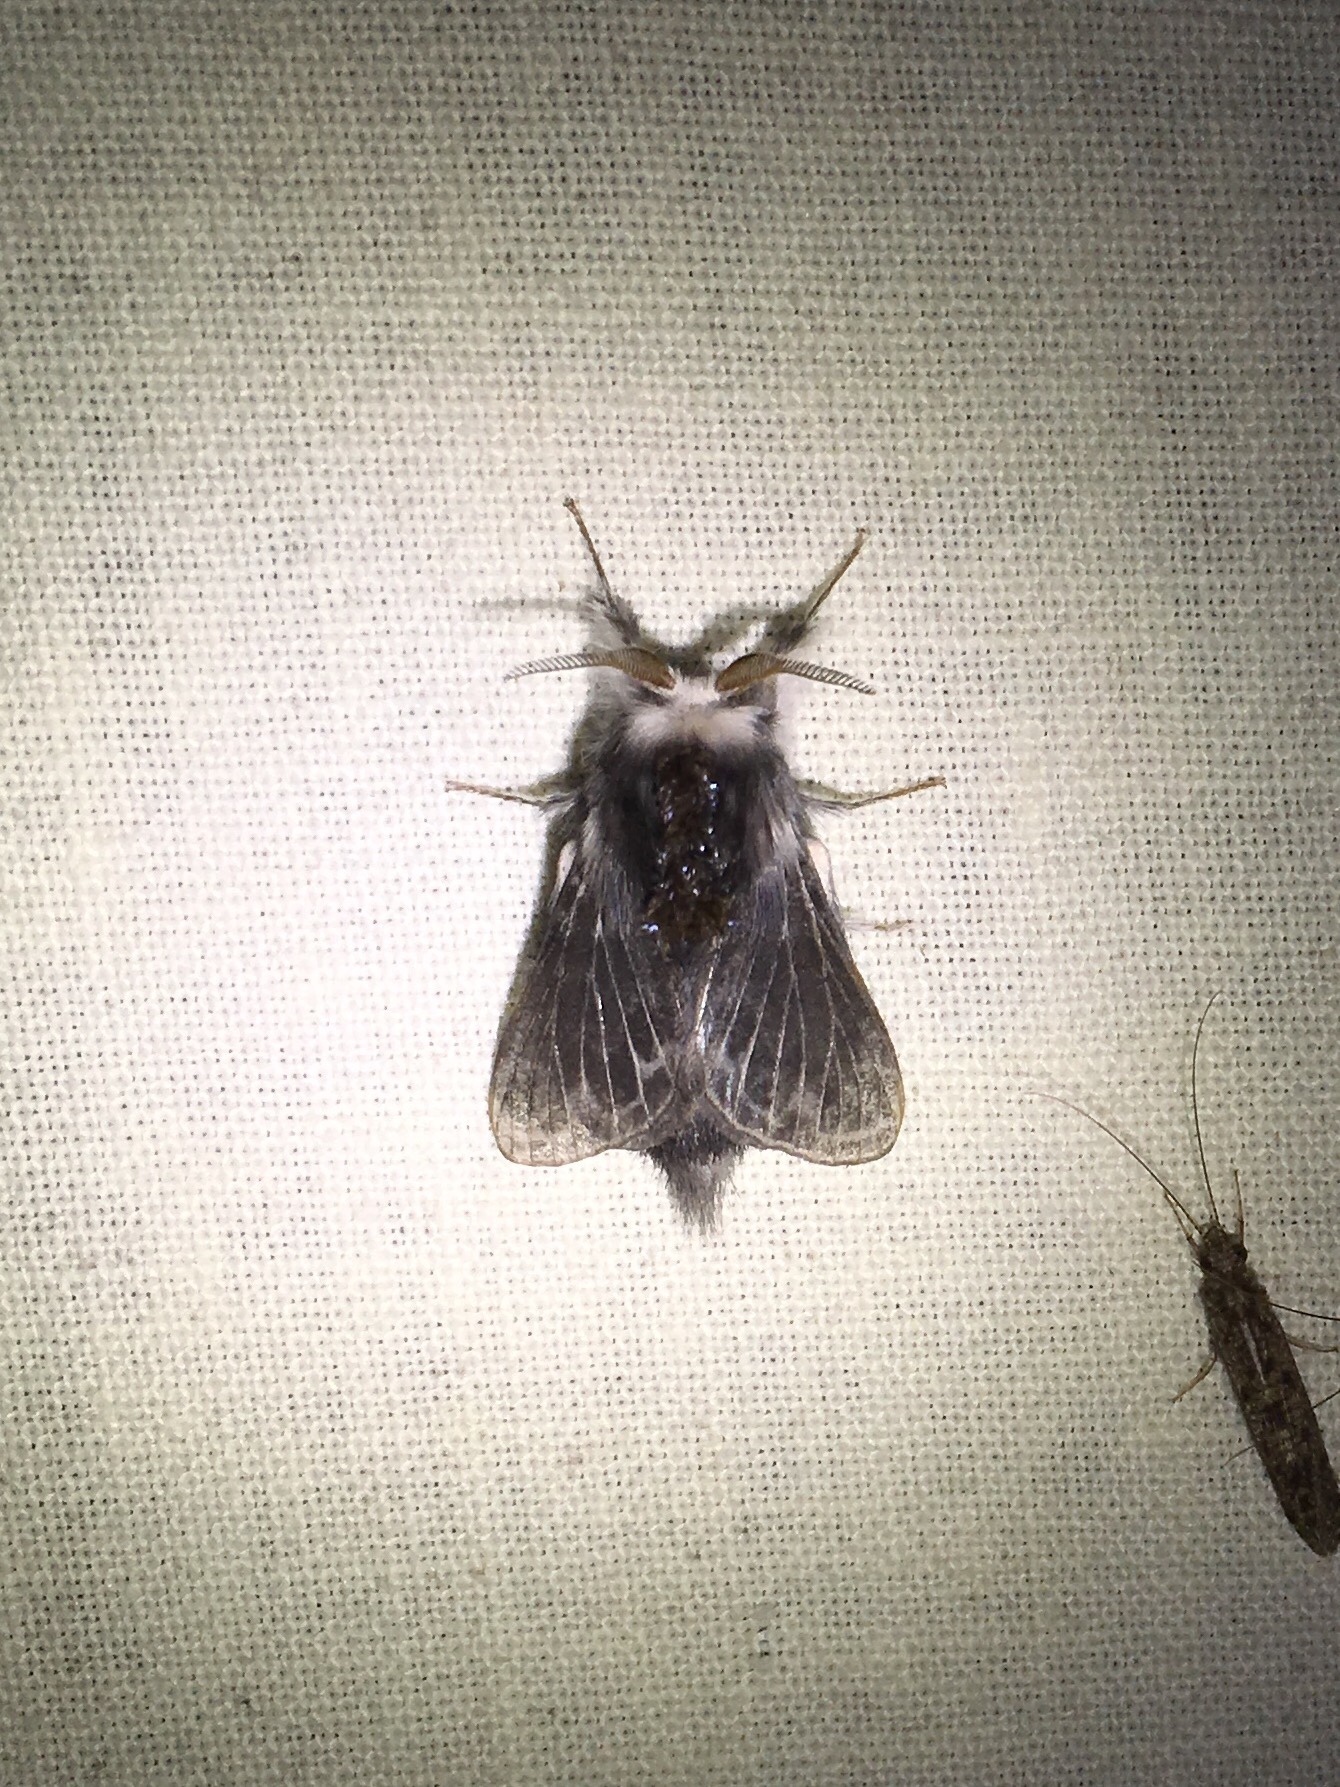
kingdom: Animalia
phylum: Arthropoda
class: Insecta
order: Lepidoptera
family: Lasiocampidae
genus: Tolype
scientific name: Tolype laricis
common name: Larch tolype moth
